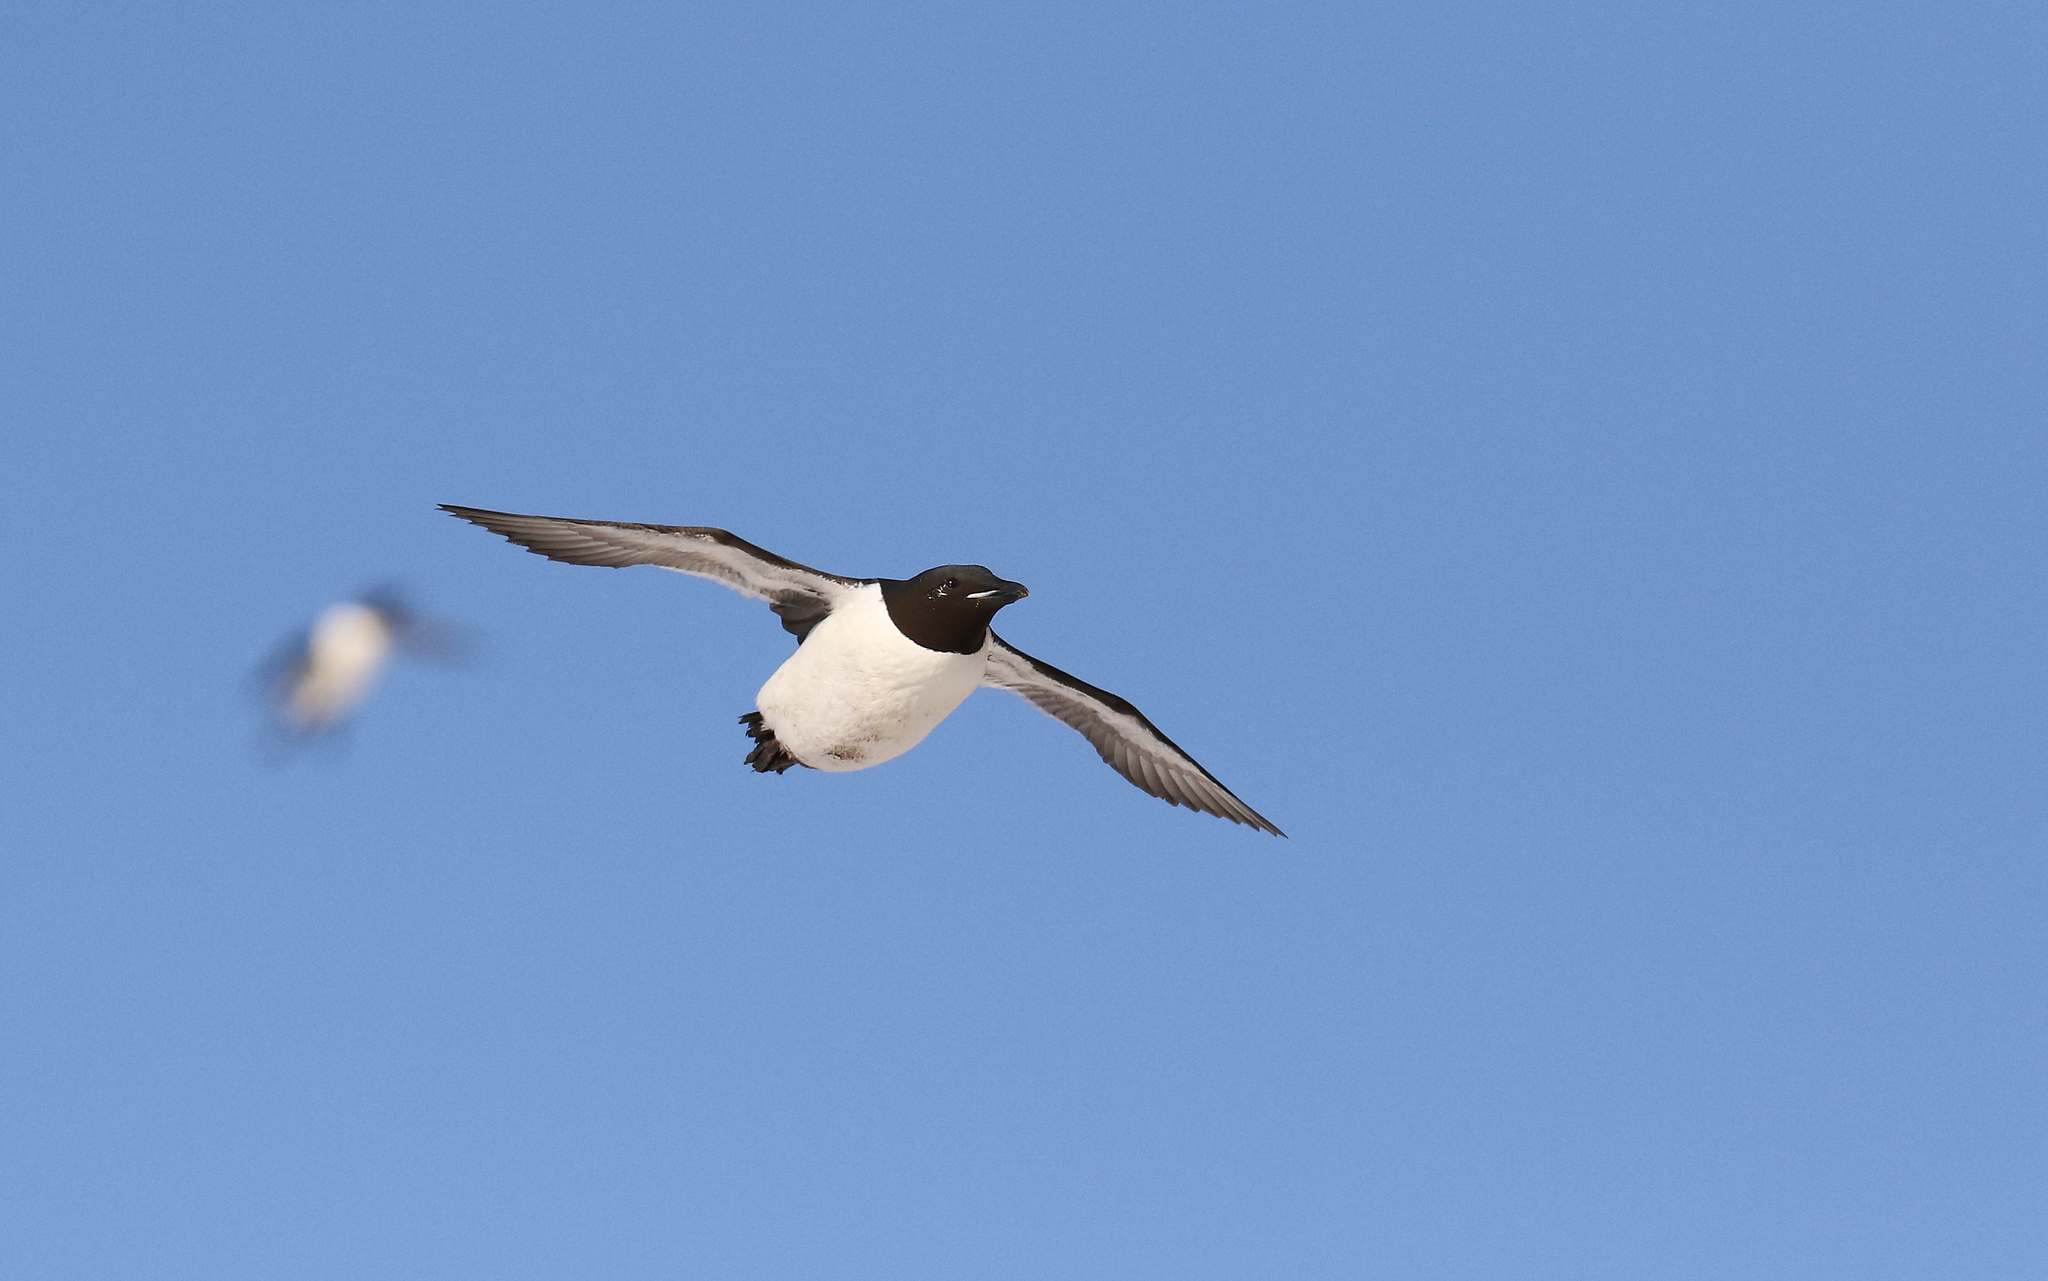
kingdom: Animalia
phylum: Chordata
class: Aves
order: Charadriiformes
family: Alcidae
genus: Uria
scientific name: Uria lomvia
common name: Thick-billed murre
